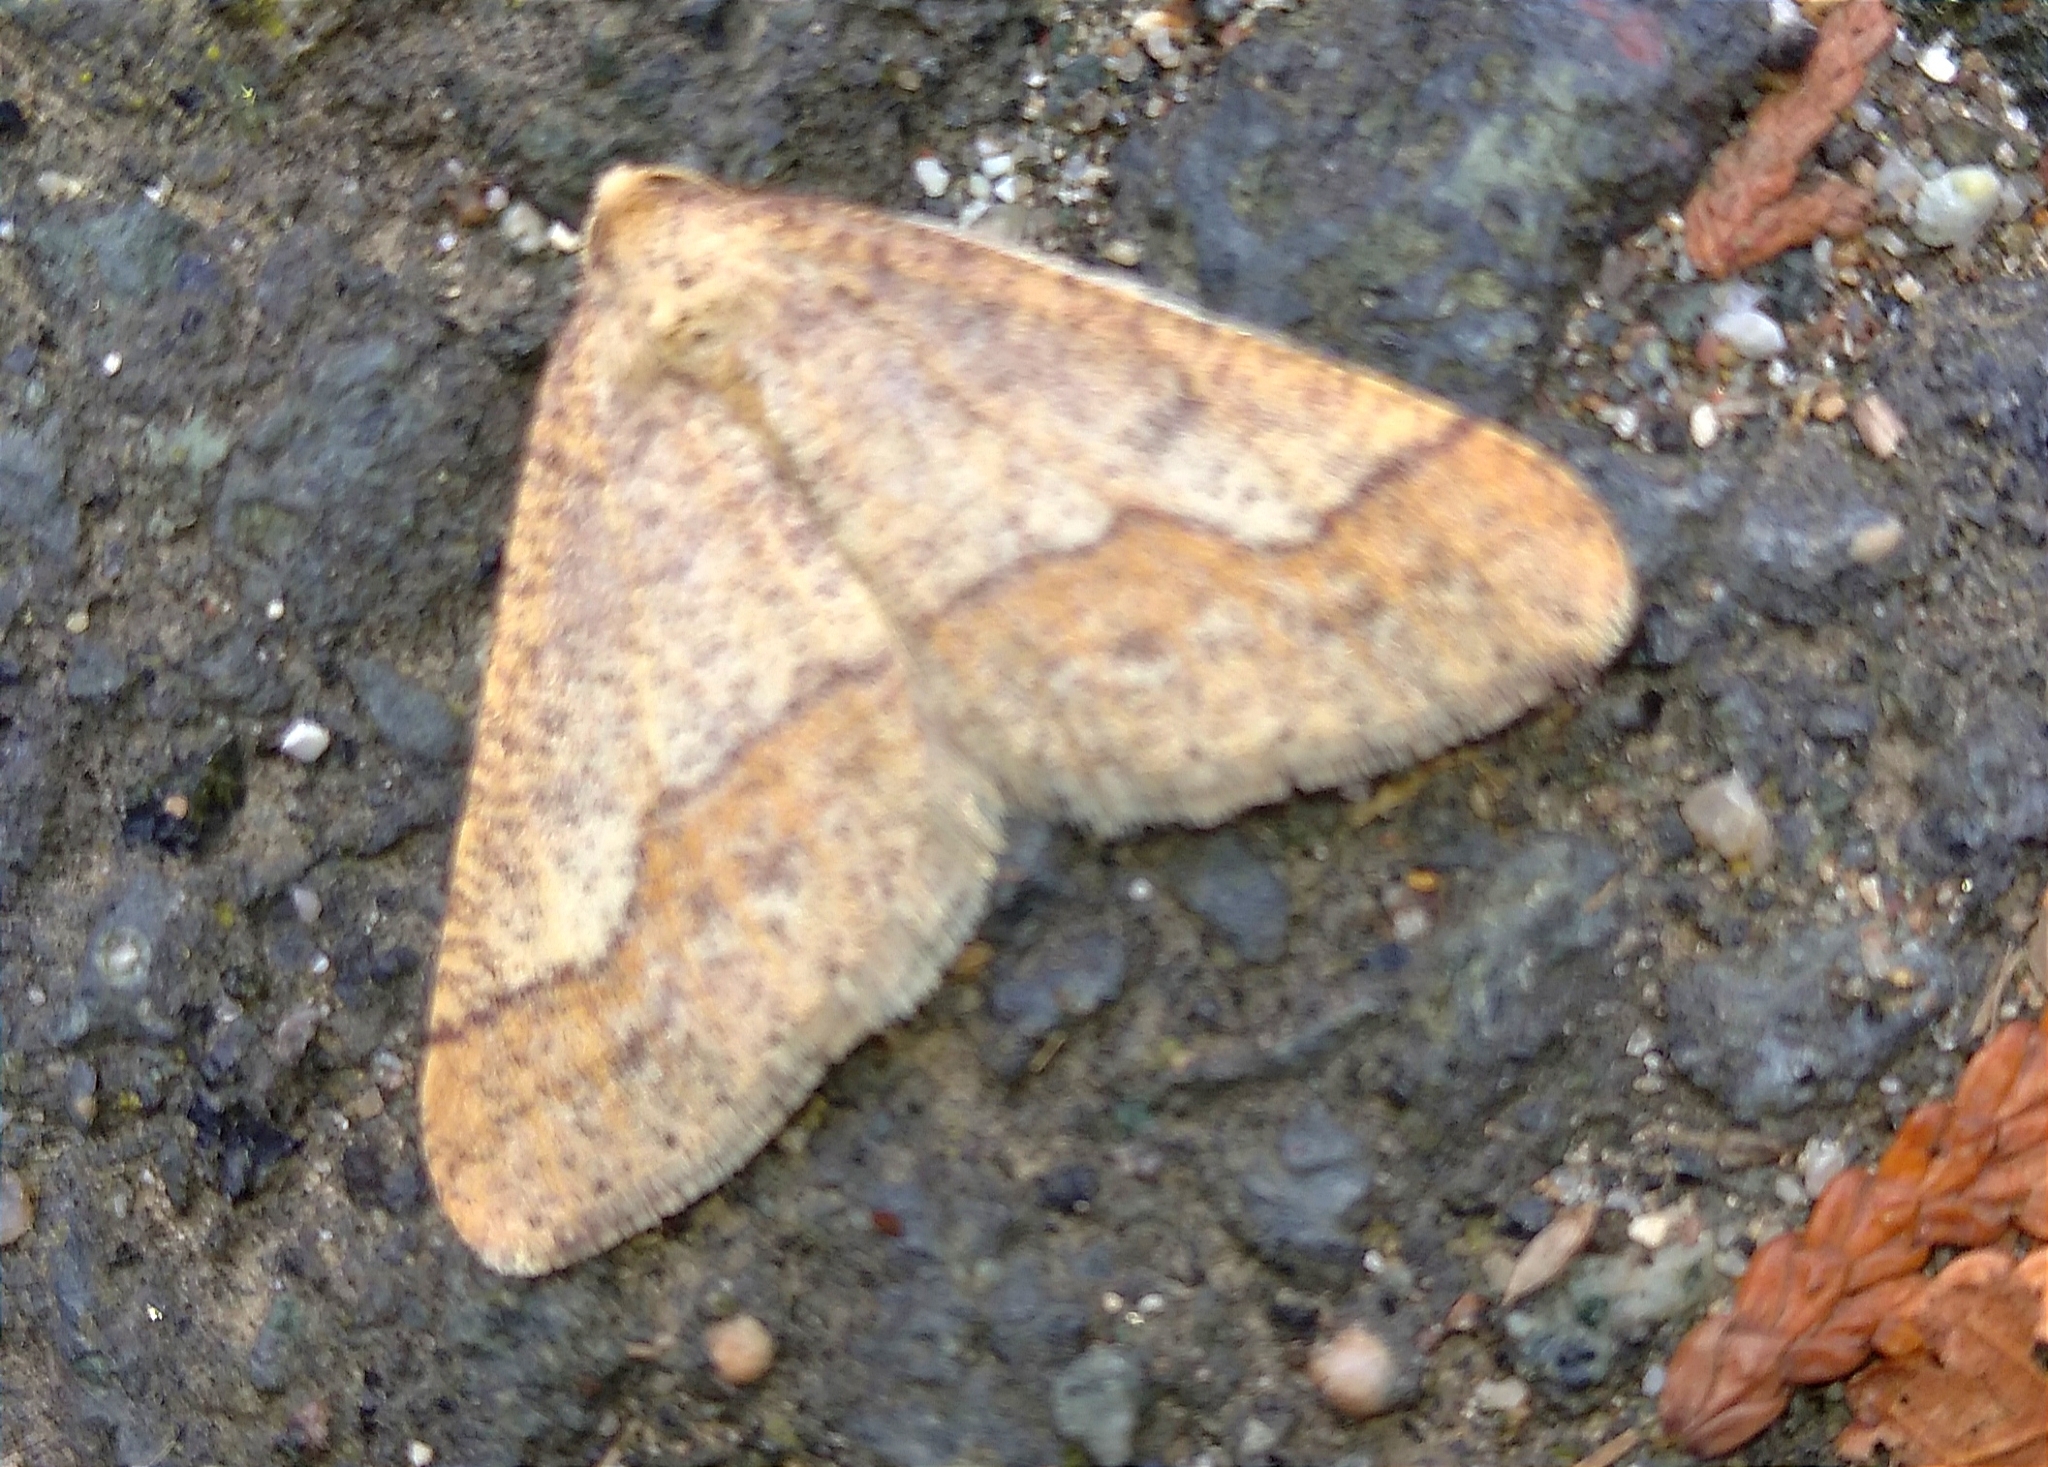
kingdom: Animalia
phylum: Arthropoda
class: Insecta
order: Lepidoptera
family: Geometridae
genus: Agriopis
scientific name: Agriopis marginaria
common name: Dotted border
